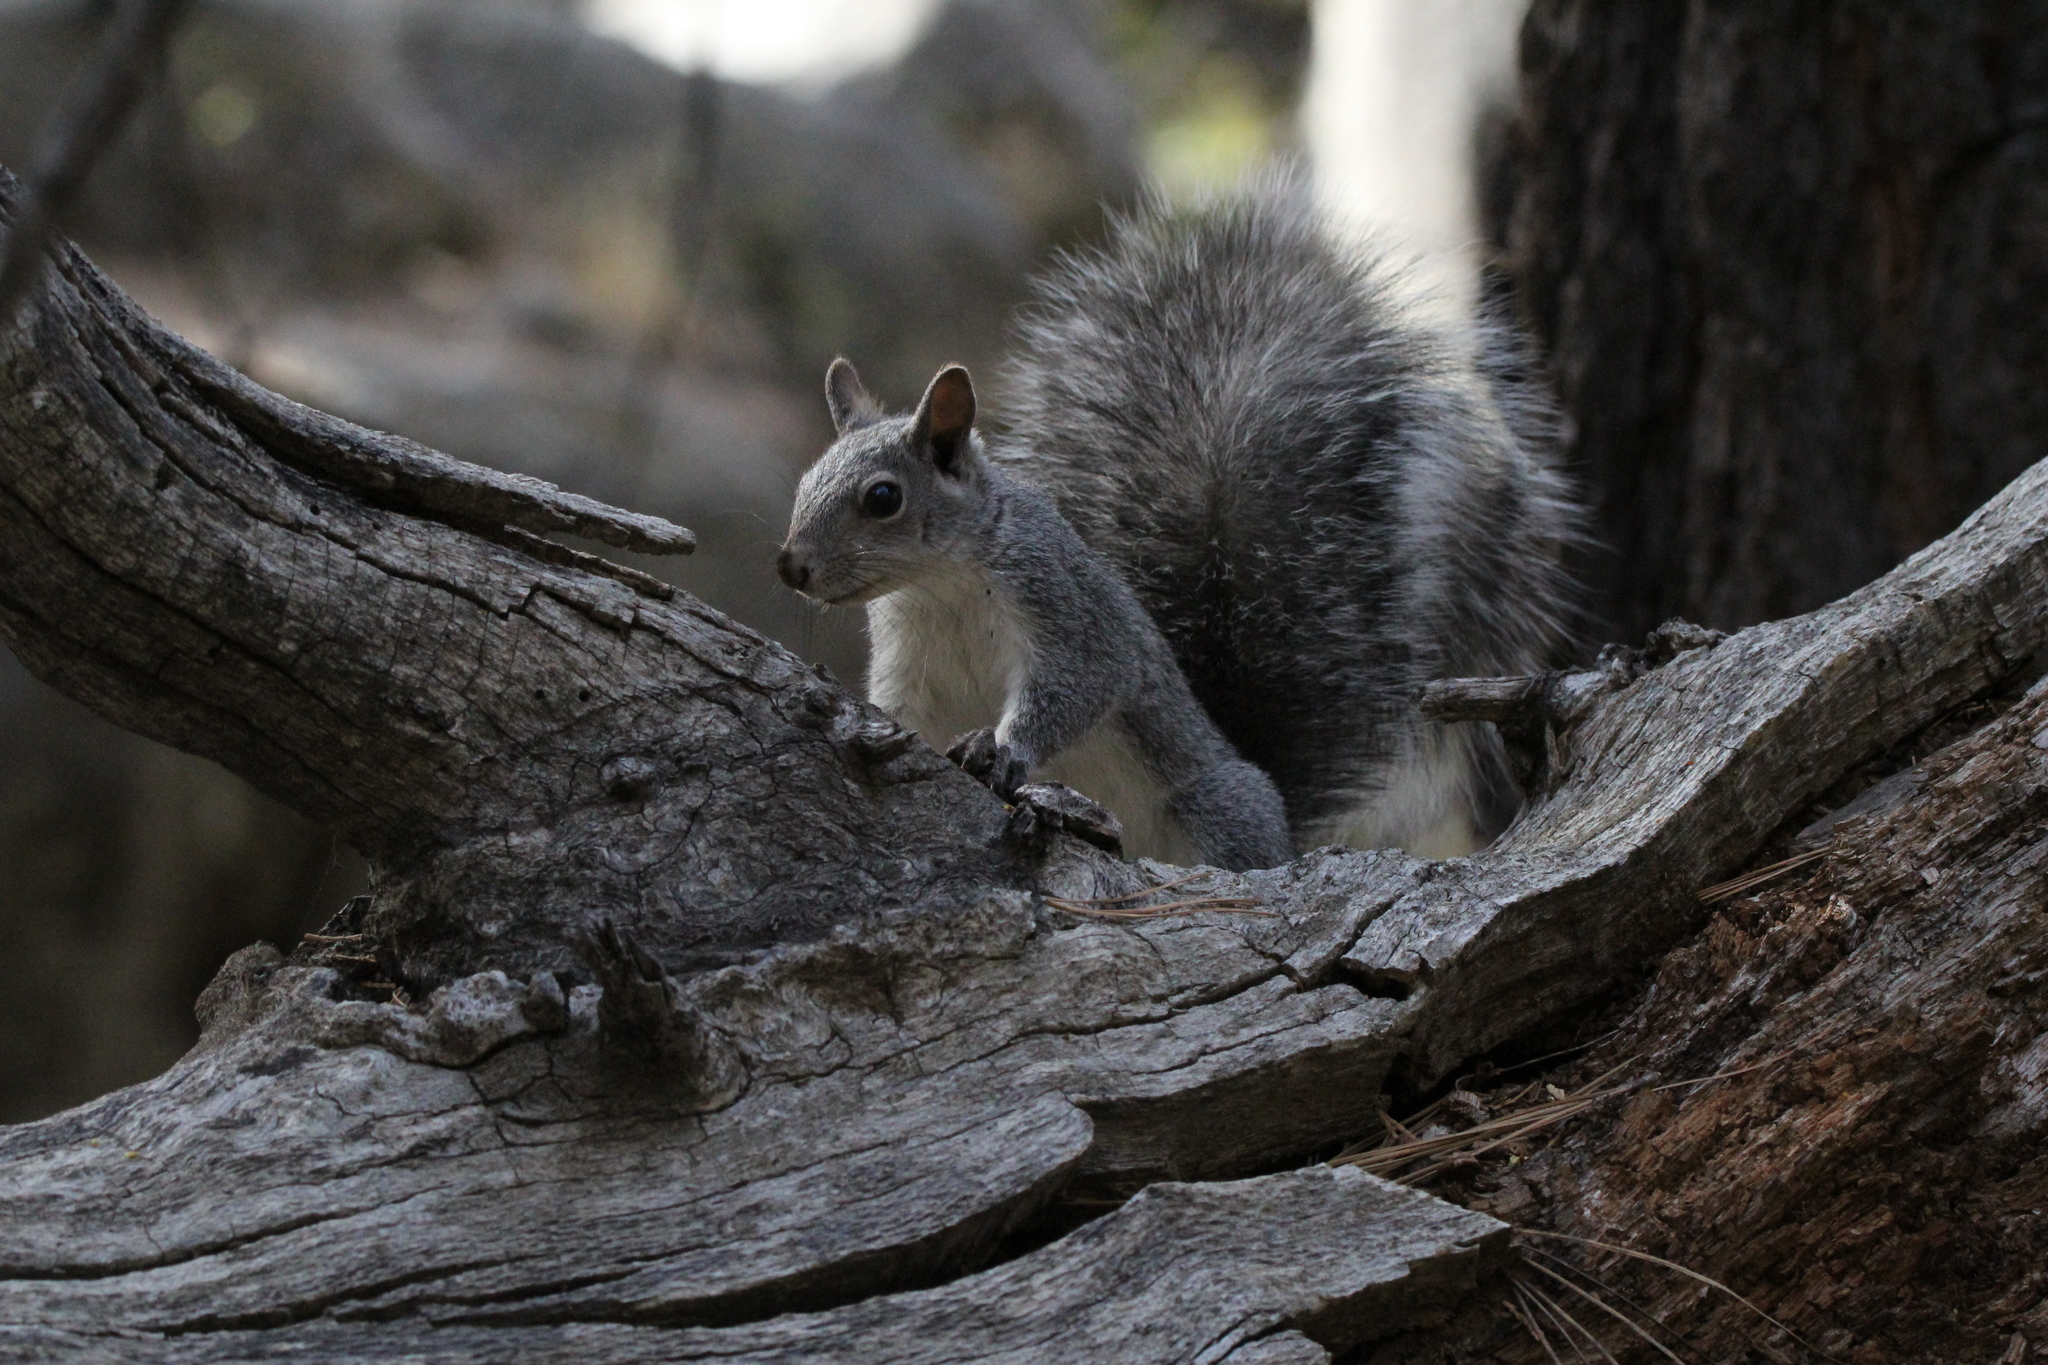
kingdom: Animalia
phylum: Chordata
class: Mammalia
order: Rodentia
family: Sciuridae
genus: Sciurus
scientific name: Sciurus griseus
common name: Western gray squirrel
